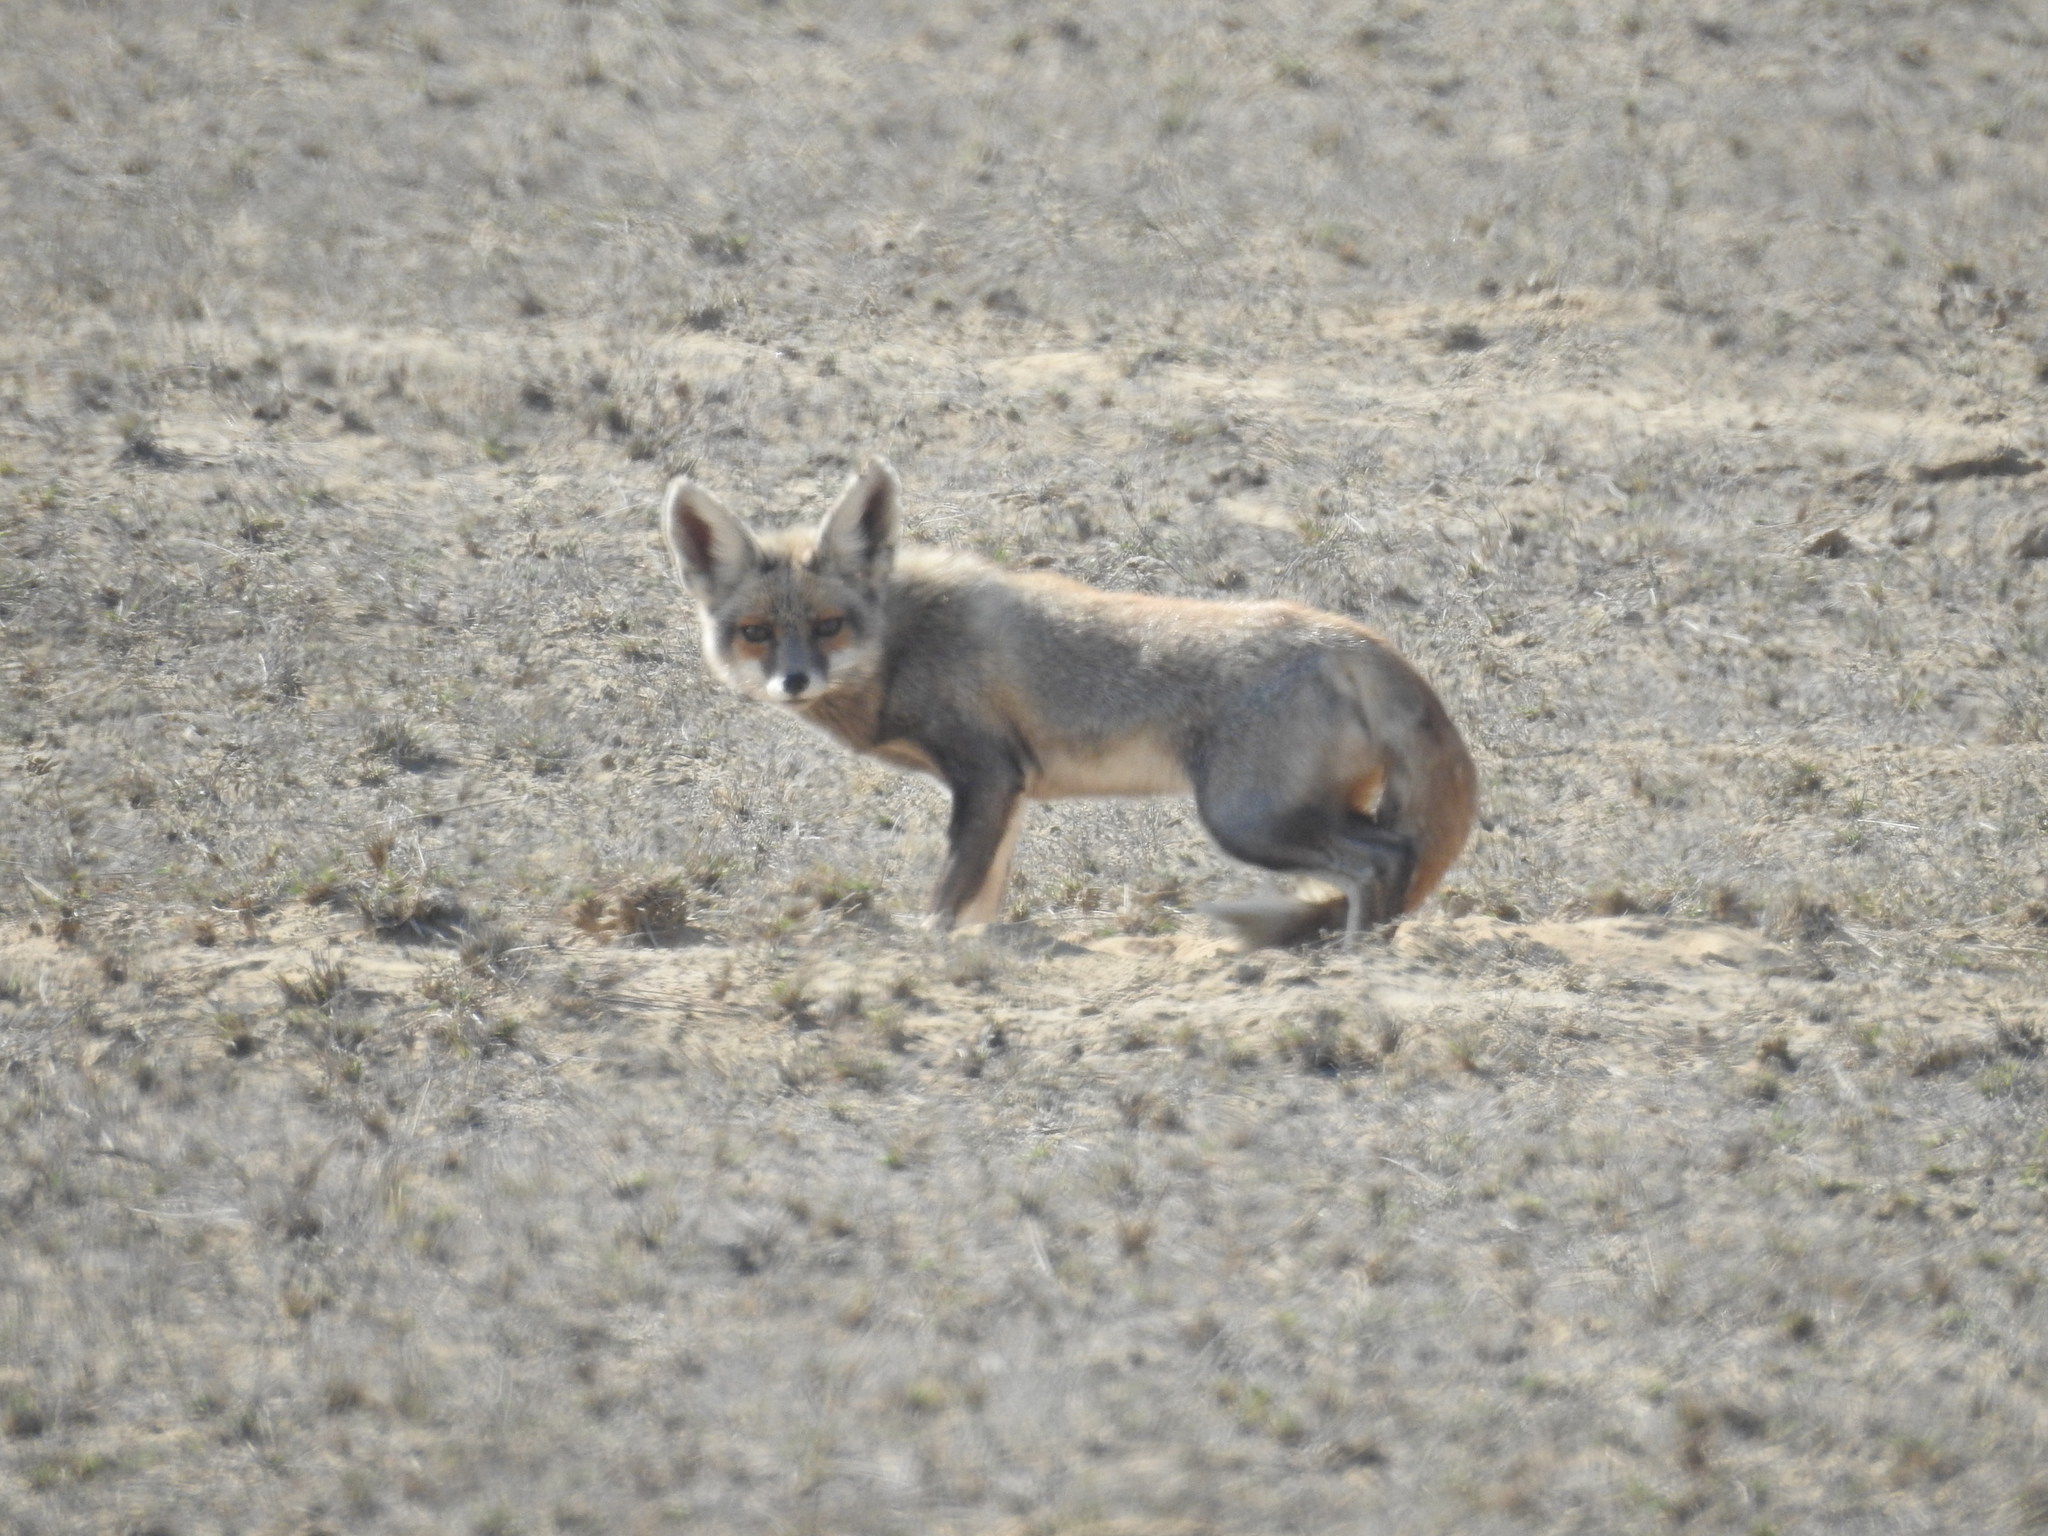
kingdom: Animalia
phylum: Chordata
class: Mammalia
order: Carnivora
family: Canidae
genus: Vulpes
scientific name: Vulpes vulpes
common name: Red fox
